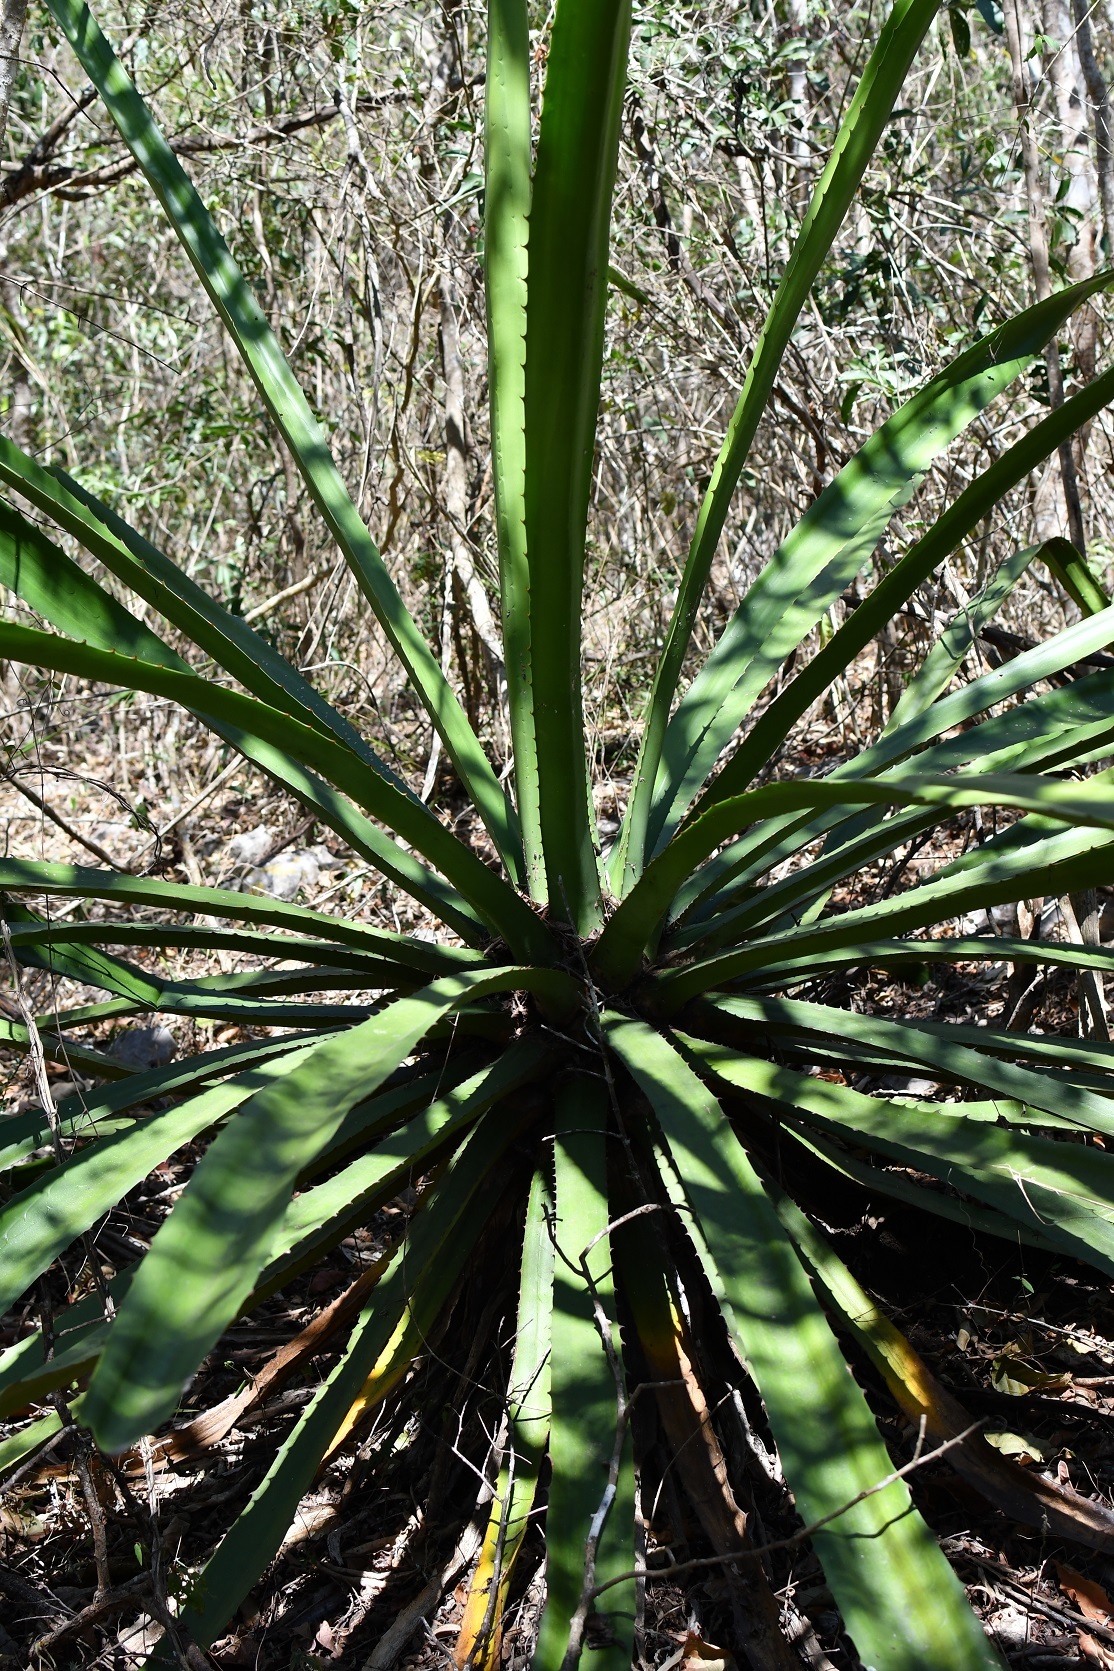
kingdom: Plantae
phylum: Tracheophyta
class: Liliopsida
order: Asparagales
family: Asparagaceae
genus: Furcraea
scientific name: Furcraea cabuya
